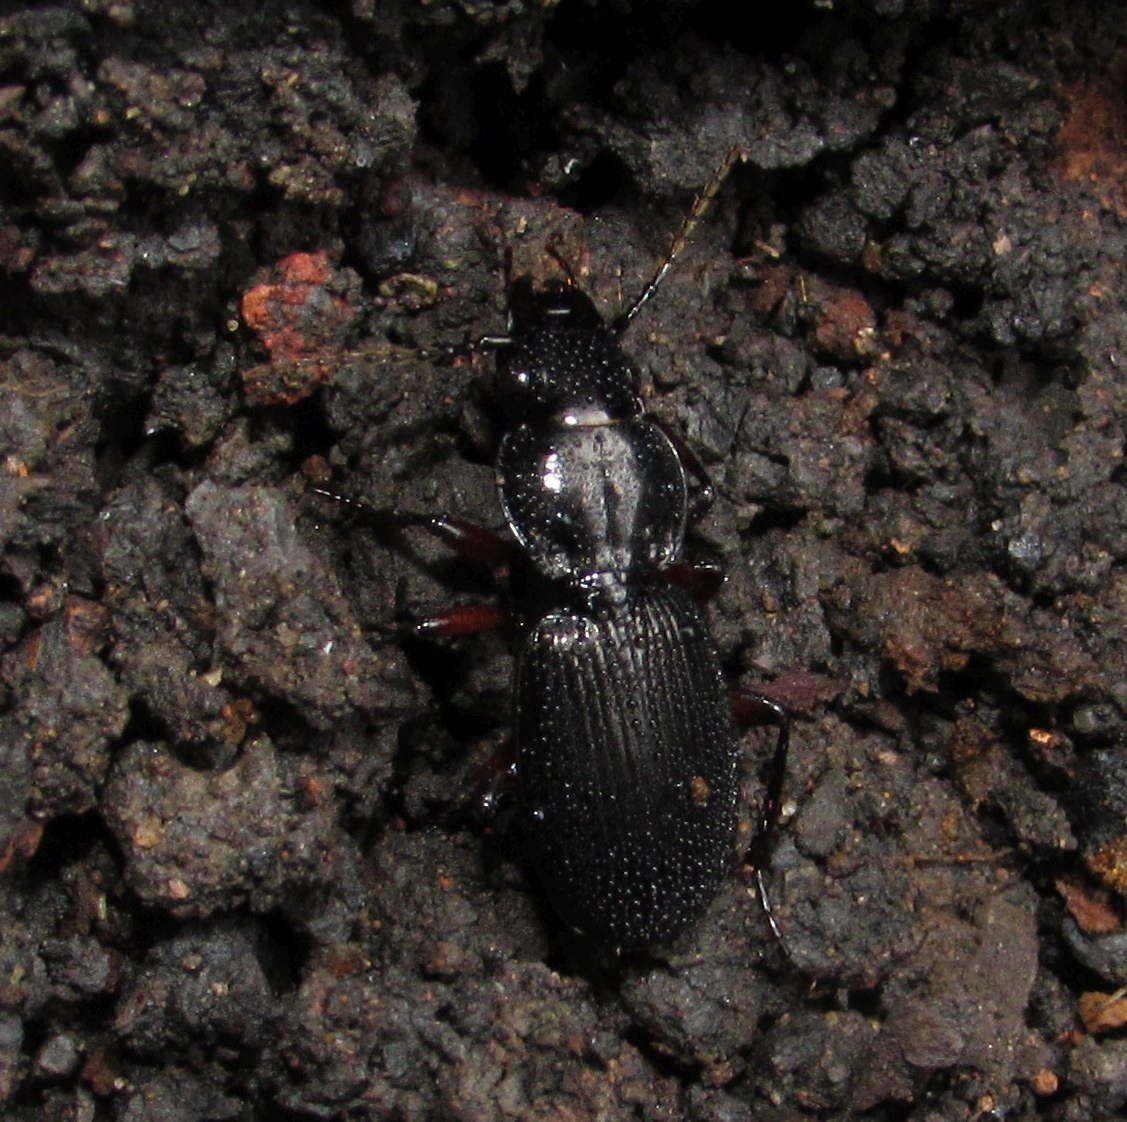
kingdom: Animalia
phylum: Arthropoda
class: Insecta
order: Coleoptera
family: Carabidae
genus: Pterostichus
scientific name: Pterostichus madidus
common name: Black clock
